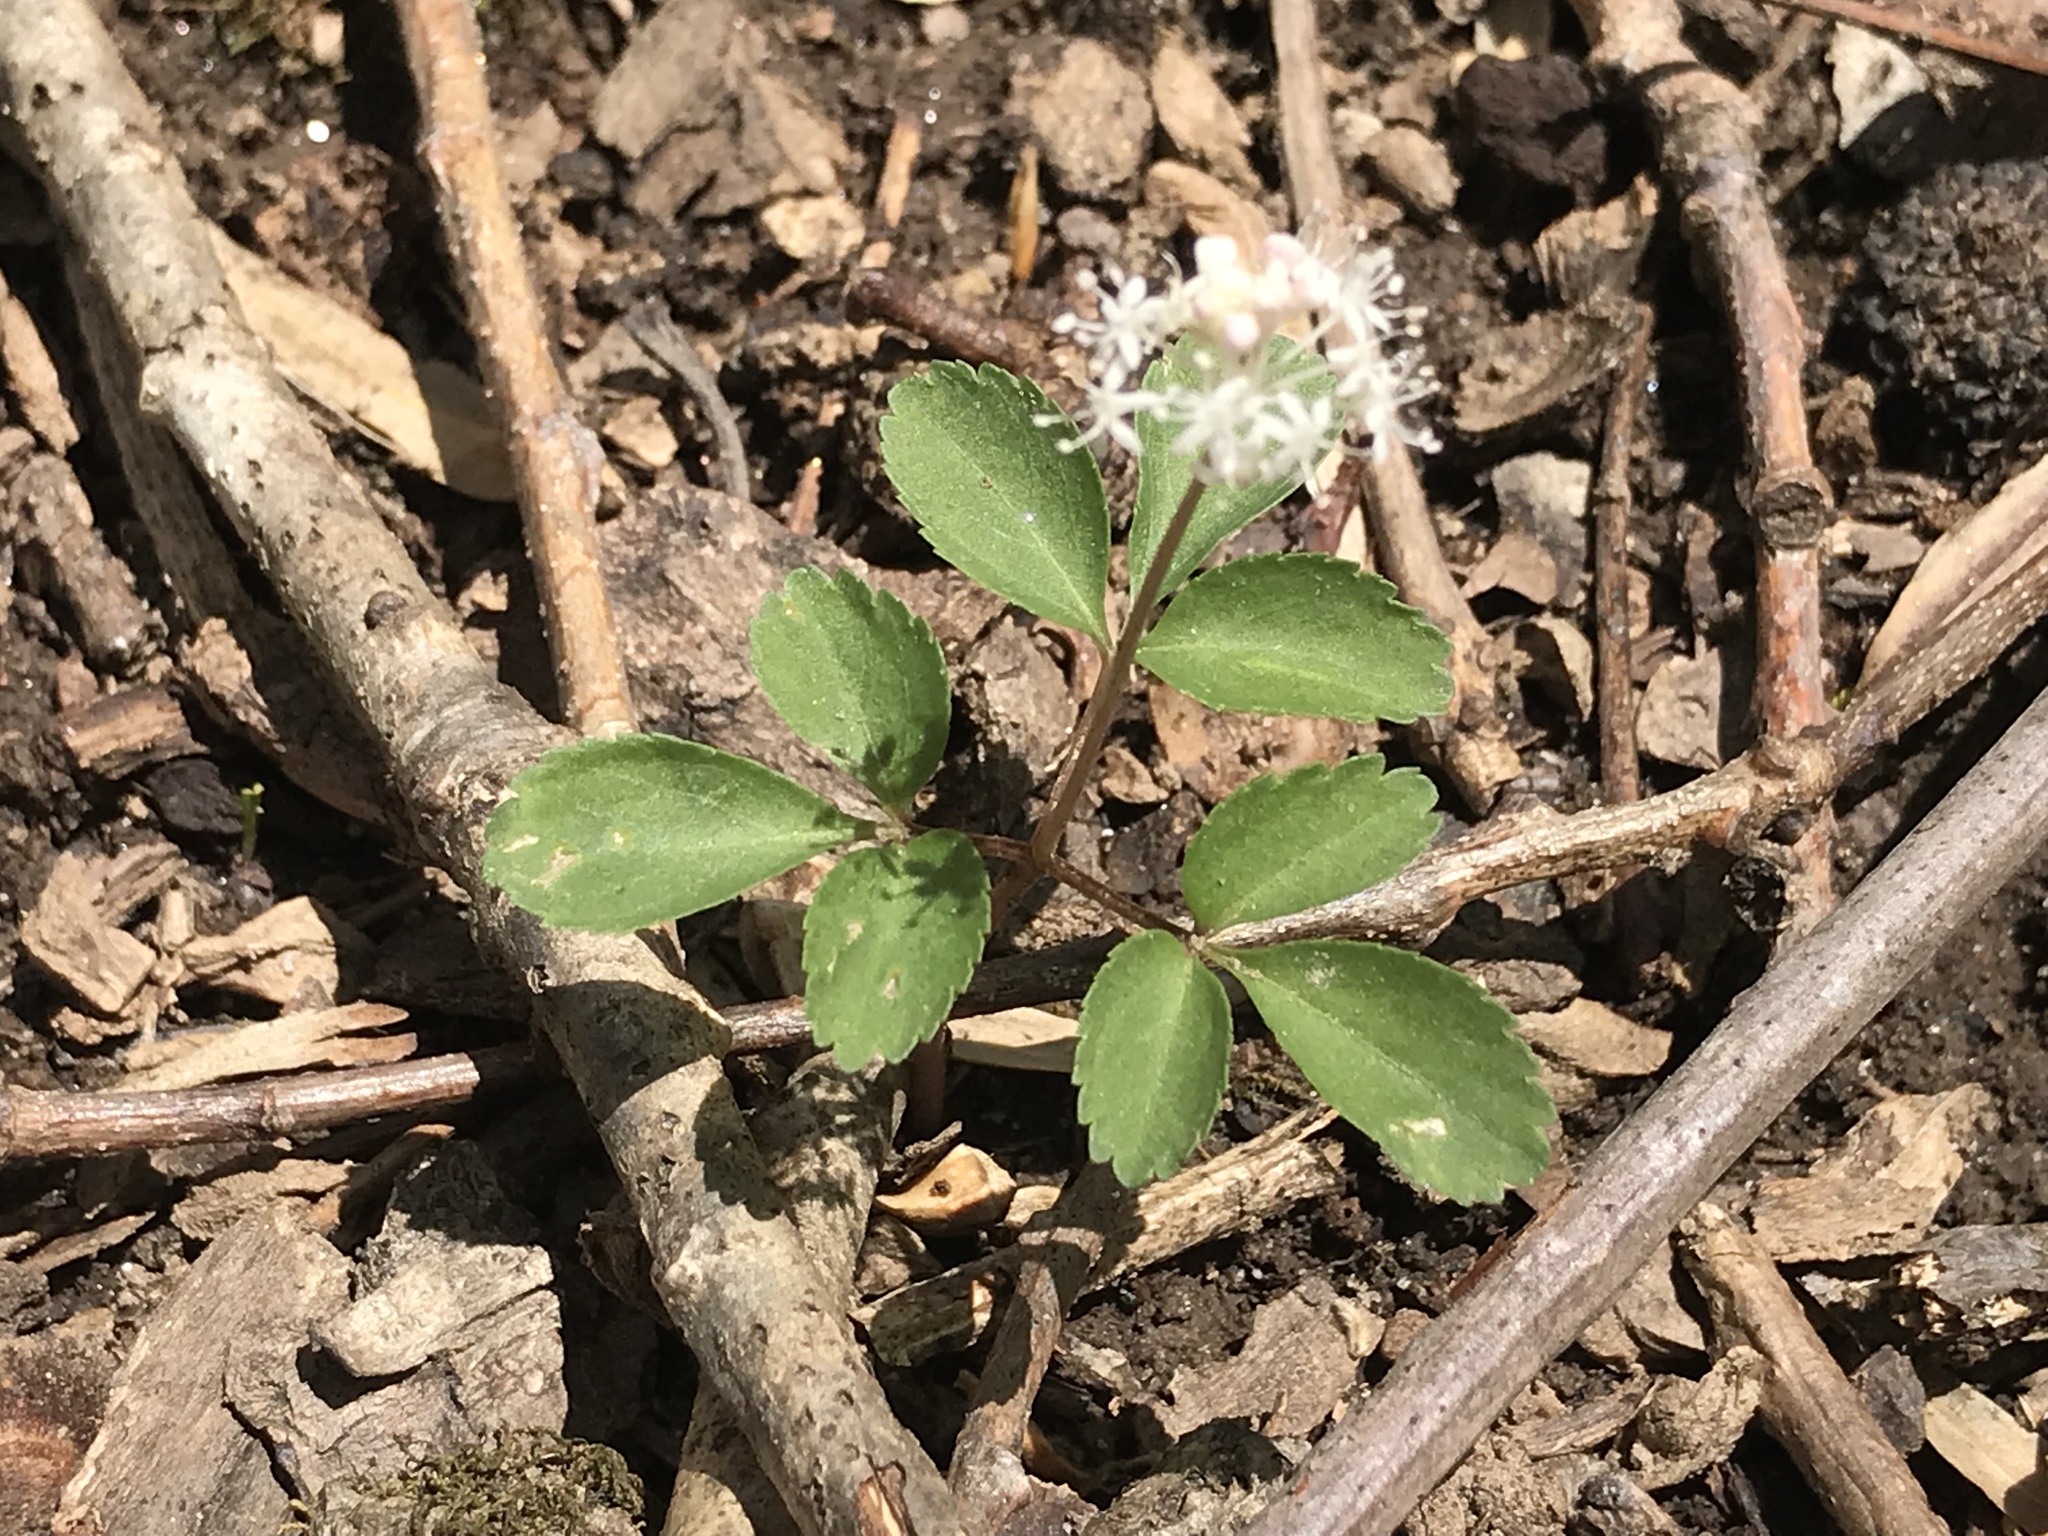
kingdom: Plantae
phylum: Tracheophyta
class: Magnoliopsida
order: Apiales
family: Araliaceae
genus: Panax
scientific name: Panax trifolius
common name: Dwarf ginseng
